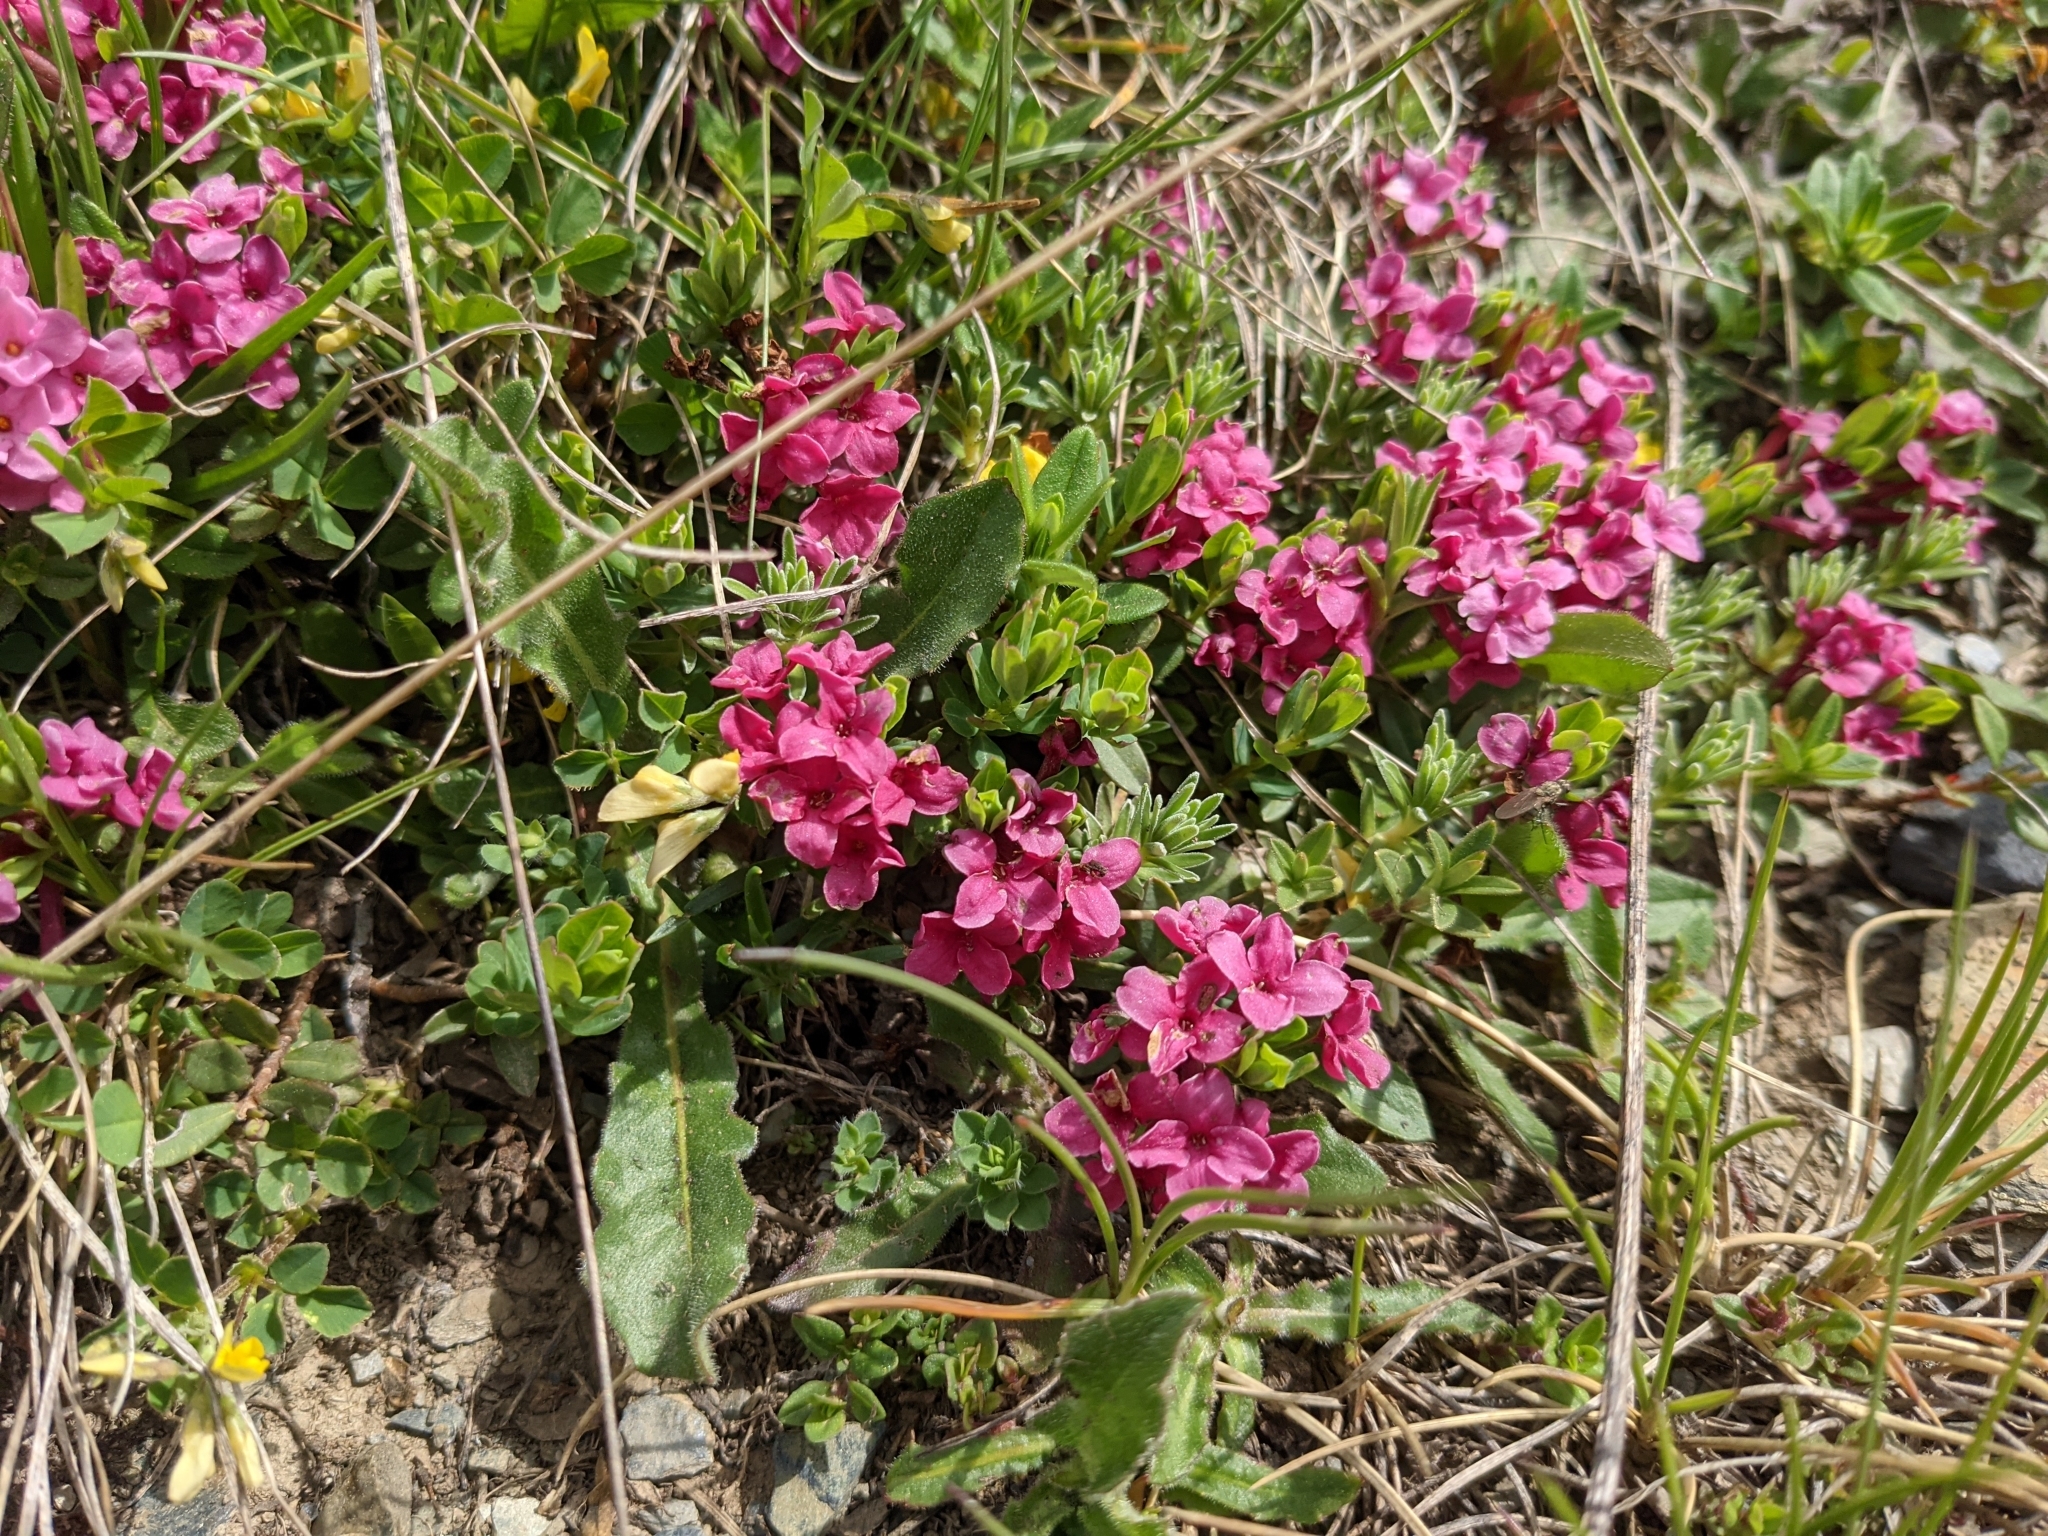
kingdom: Plantae
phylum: Tracheophyta
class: Magnoliopsida
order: Malvales
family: Thymelaeaceae
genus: Daphne
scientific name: Daphne cneorum
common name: Garland-flower
